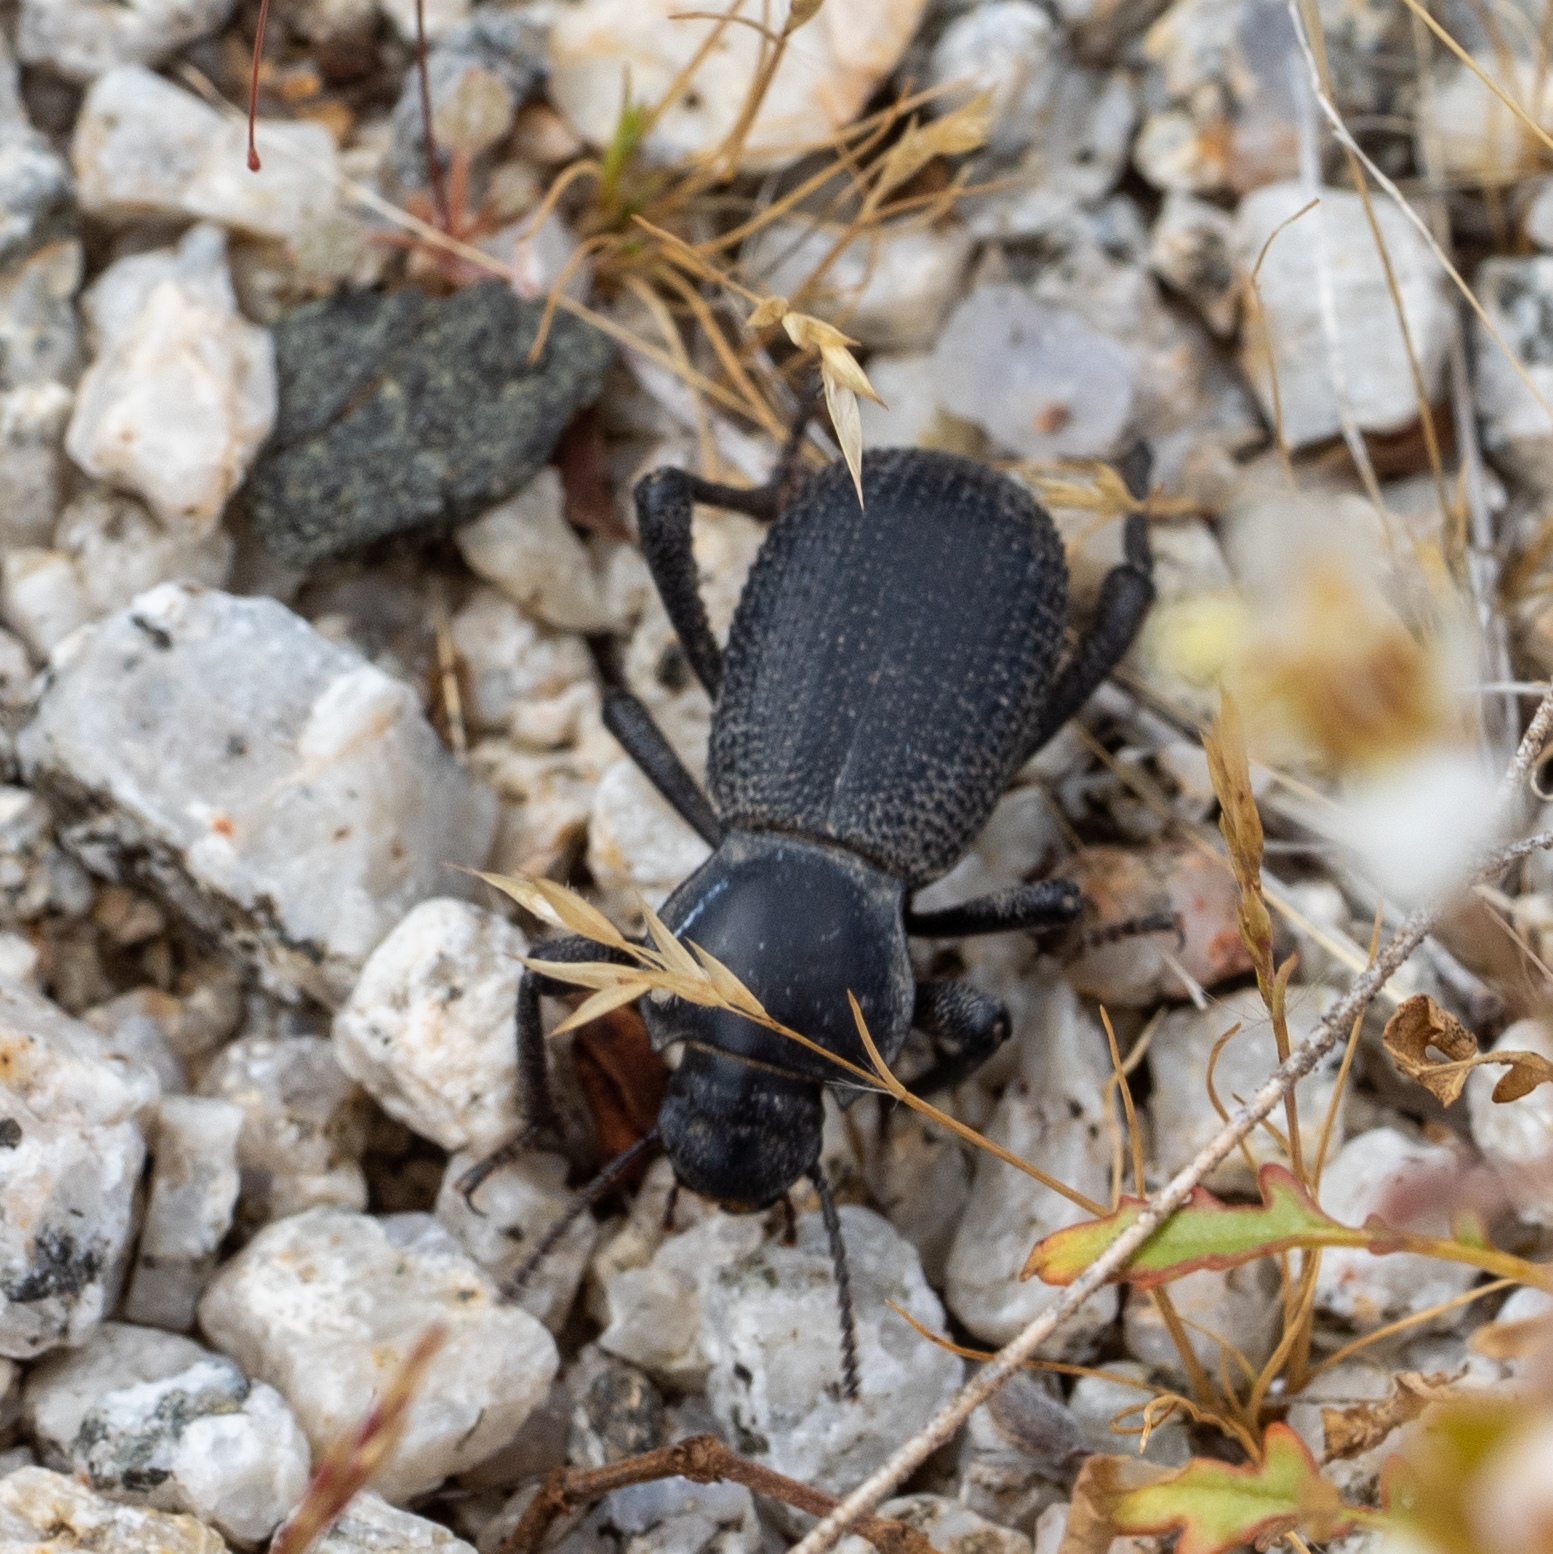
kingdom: Animalia
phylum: Arthropoda
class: Insecta
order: Coleoptera
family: Tenebrionidae
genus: Cryptoglossa
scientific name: Cryptoglossa muricata
